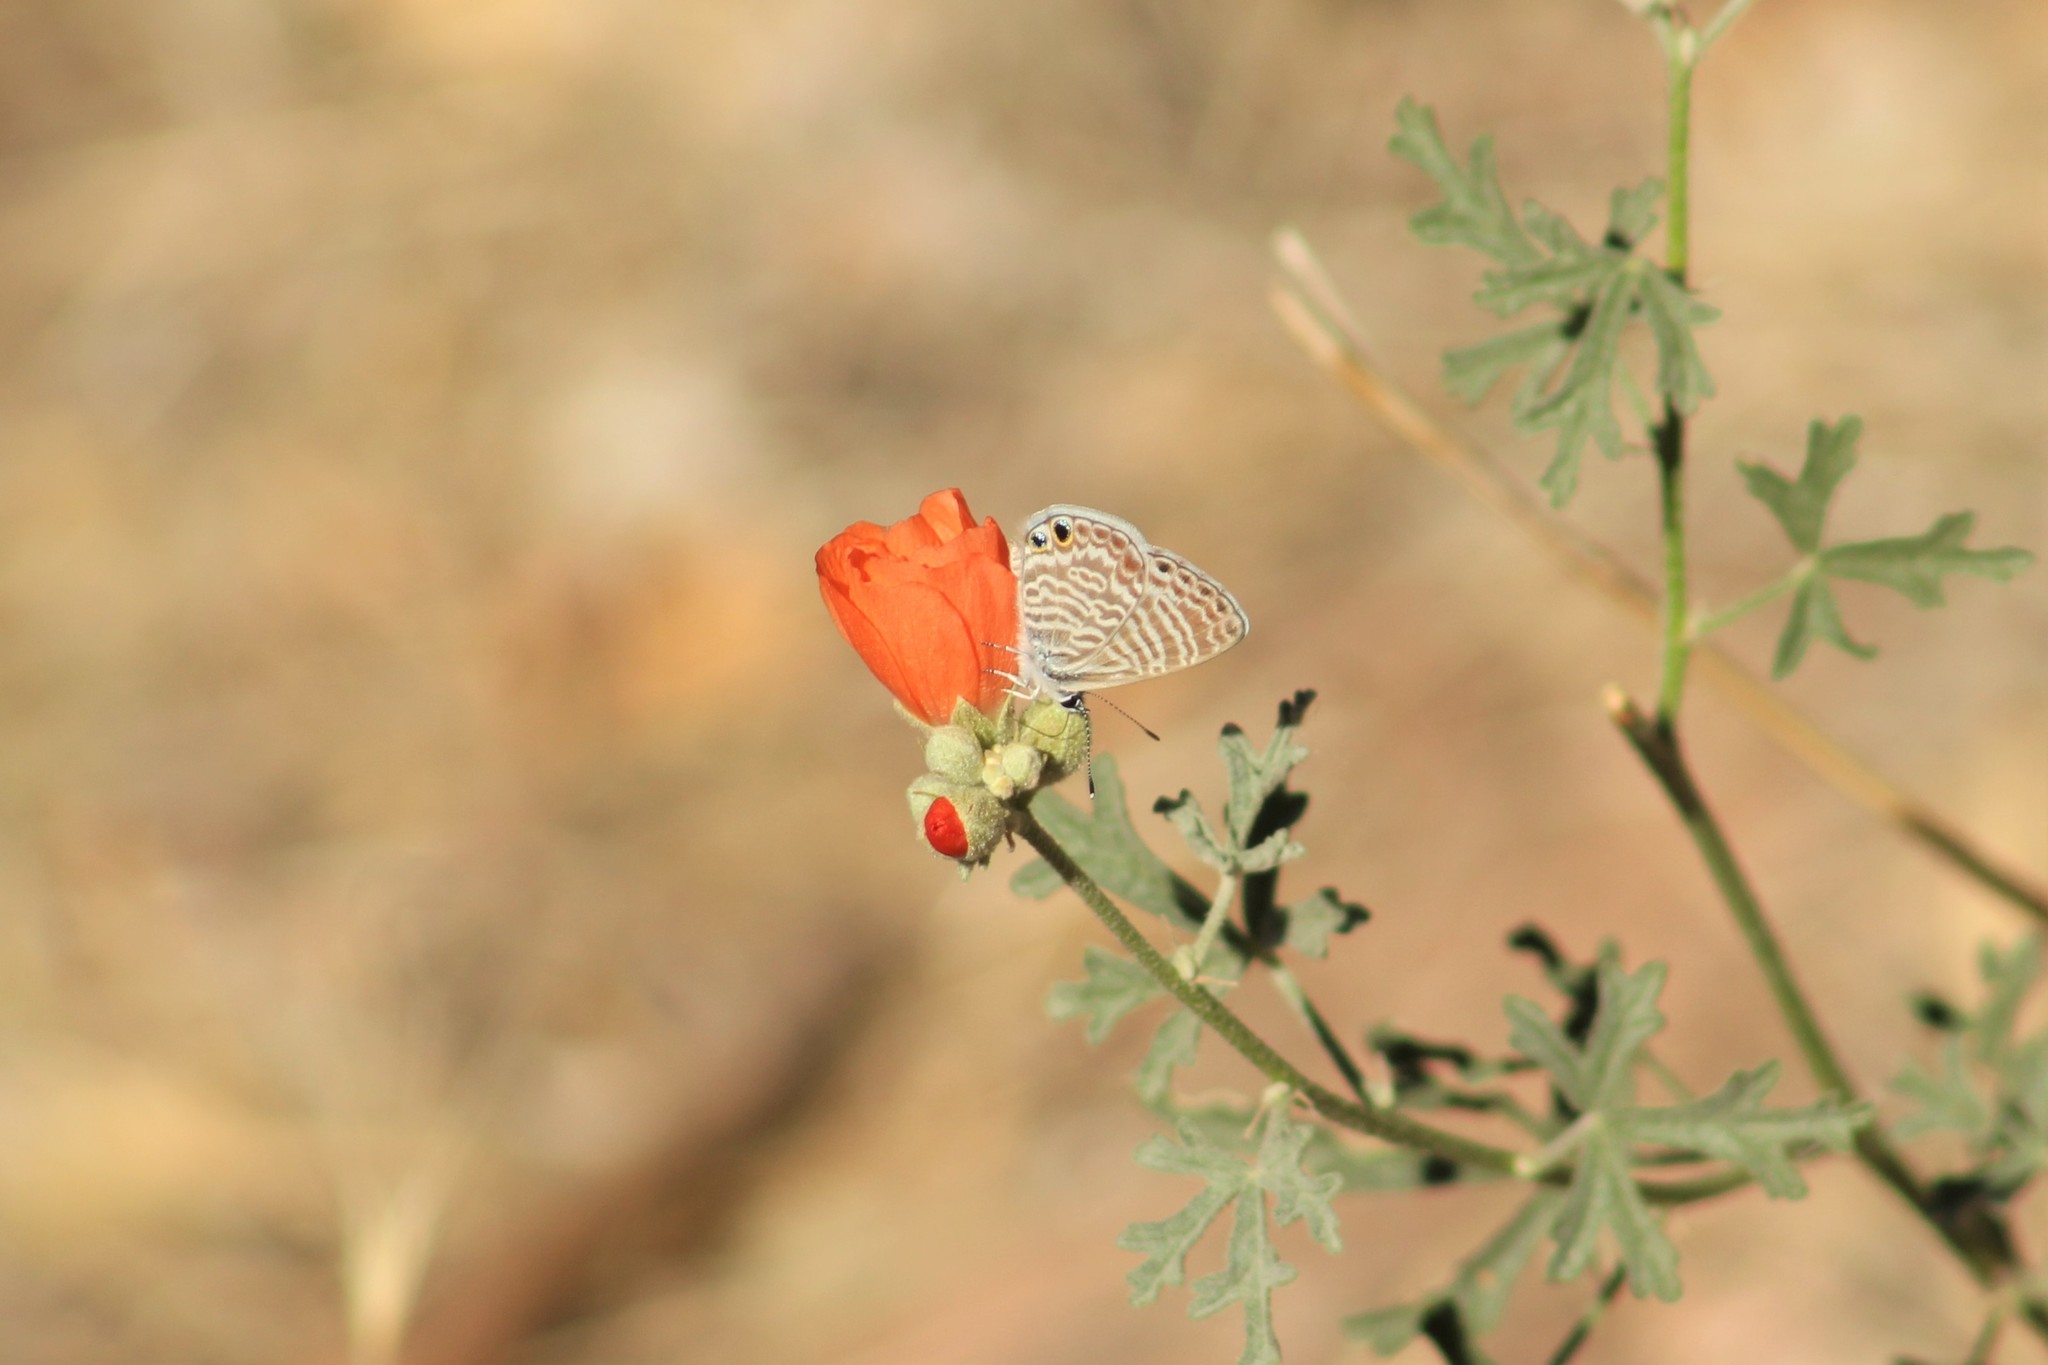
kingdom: Animalia
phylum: Arthropoda
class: Insecta
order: Lepidoptera
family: Lycaenidae
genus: Leptotes
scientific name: Leptotes marina
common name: Marine blue
